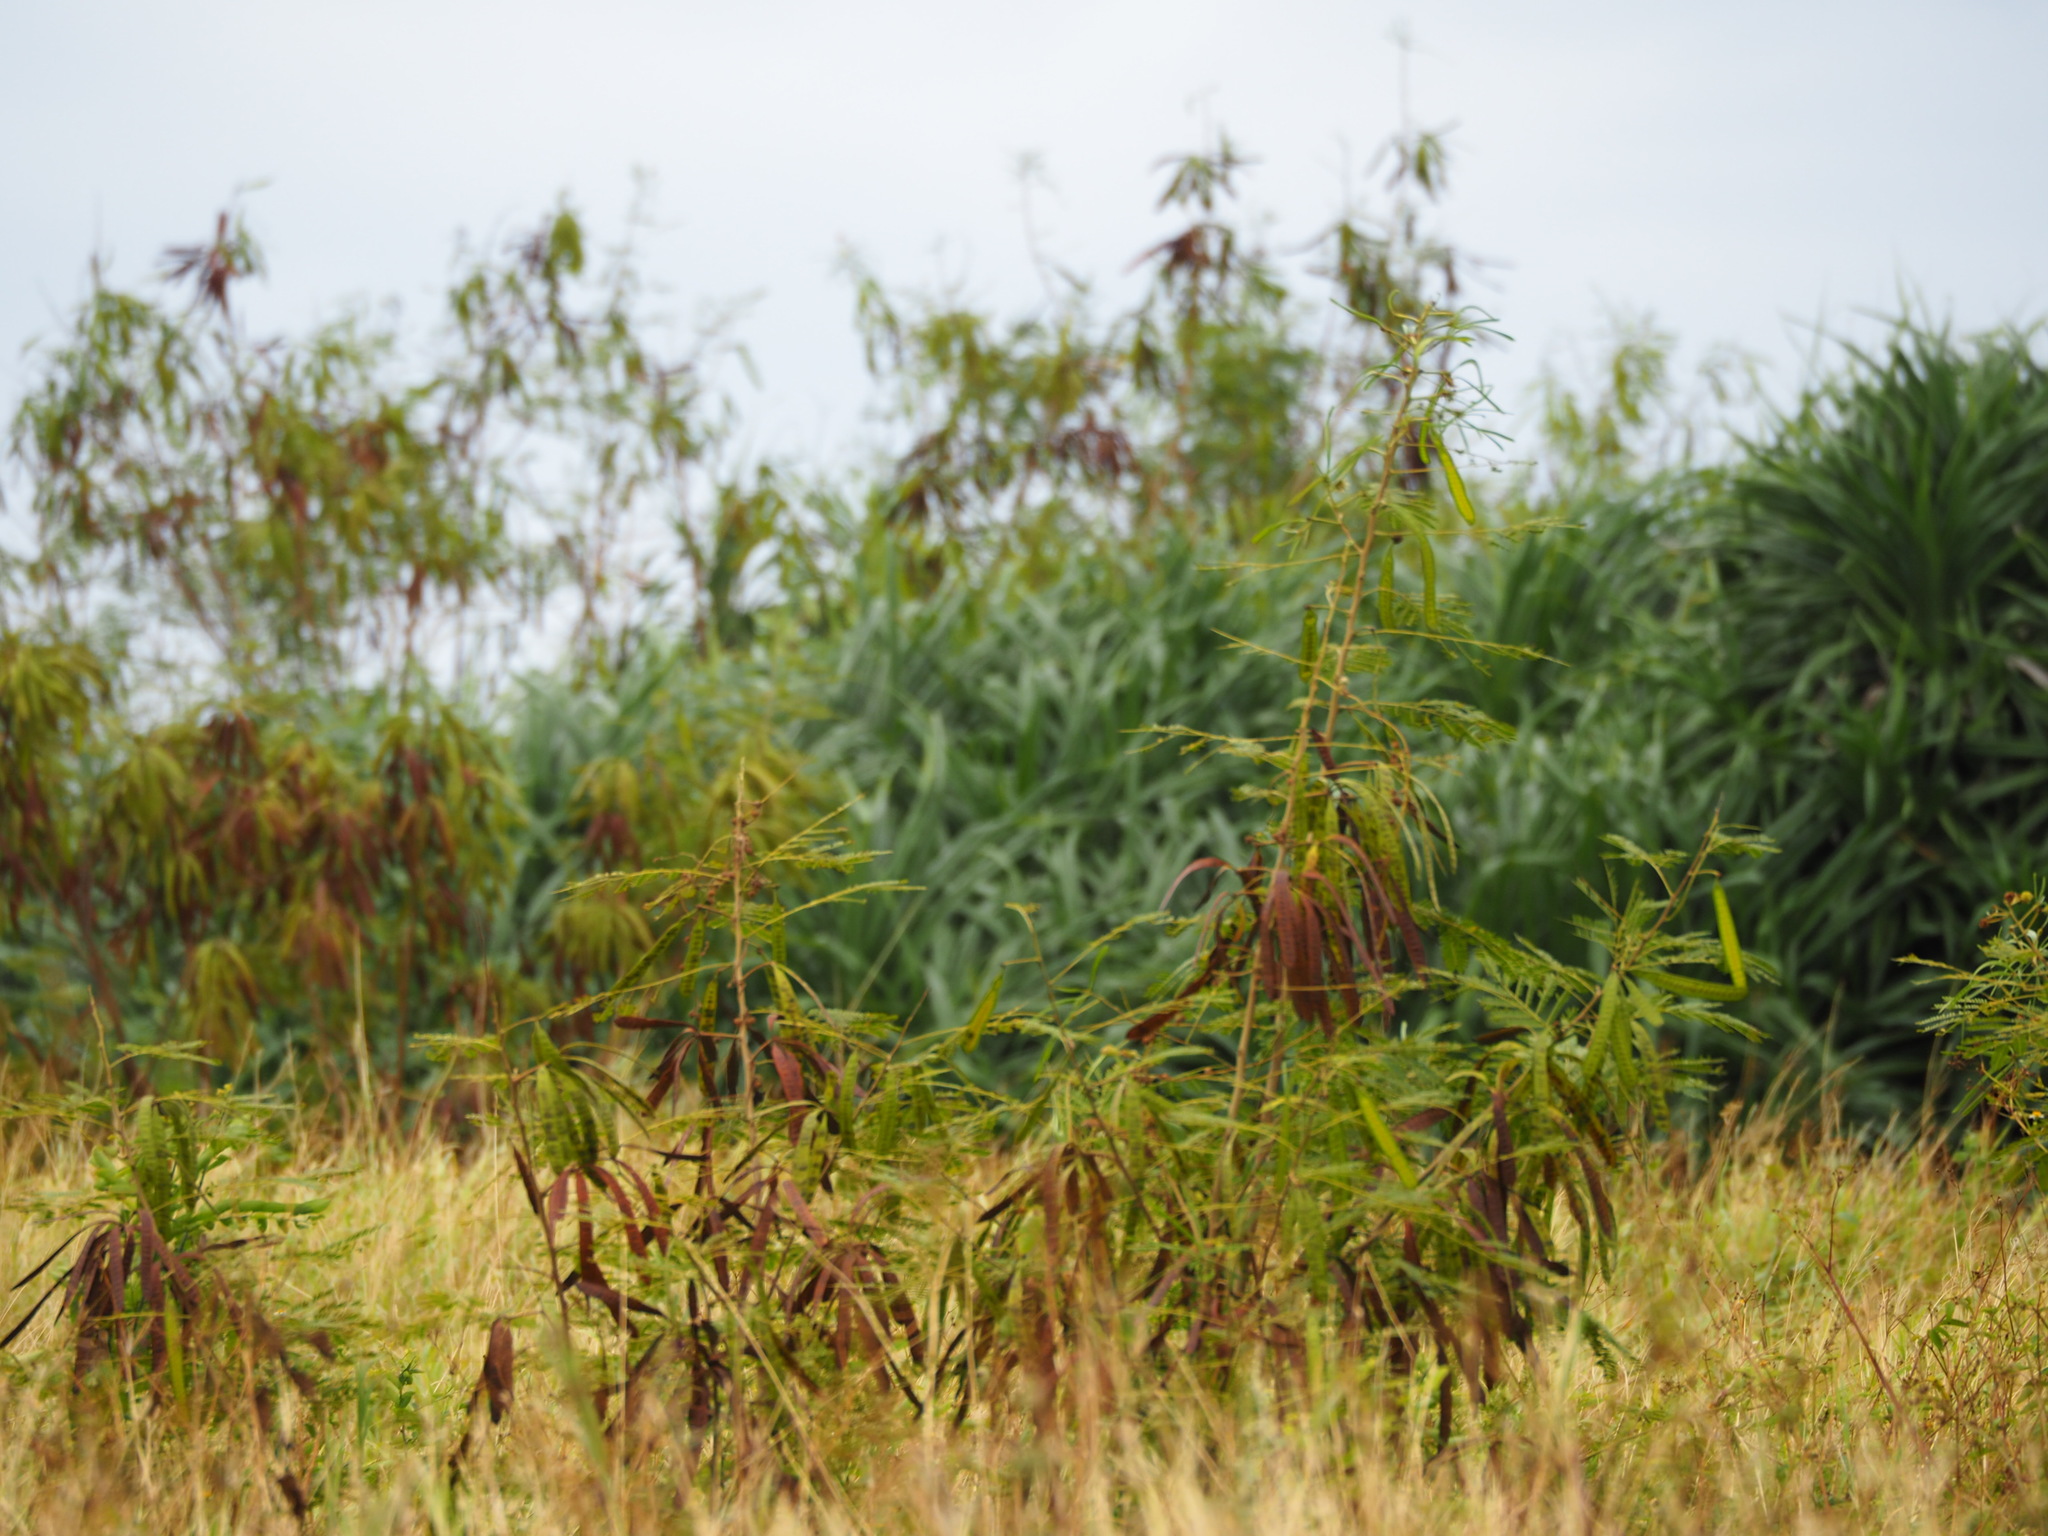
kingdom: Plantae
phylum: Tracheophyta
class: Magnoliopsida
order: Fabales
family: Fabaceae
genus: Leucaena
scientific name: Leucaena leucocephala
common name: White leadtree
